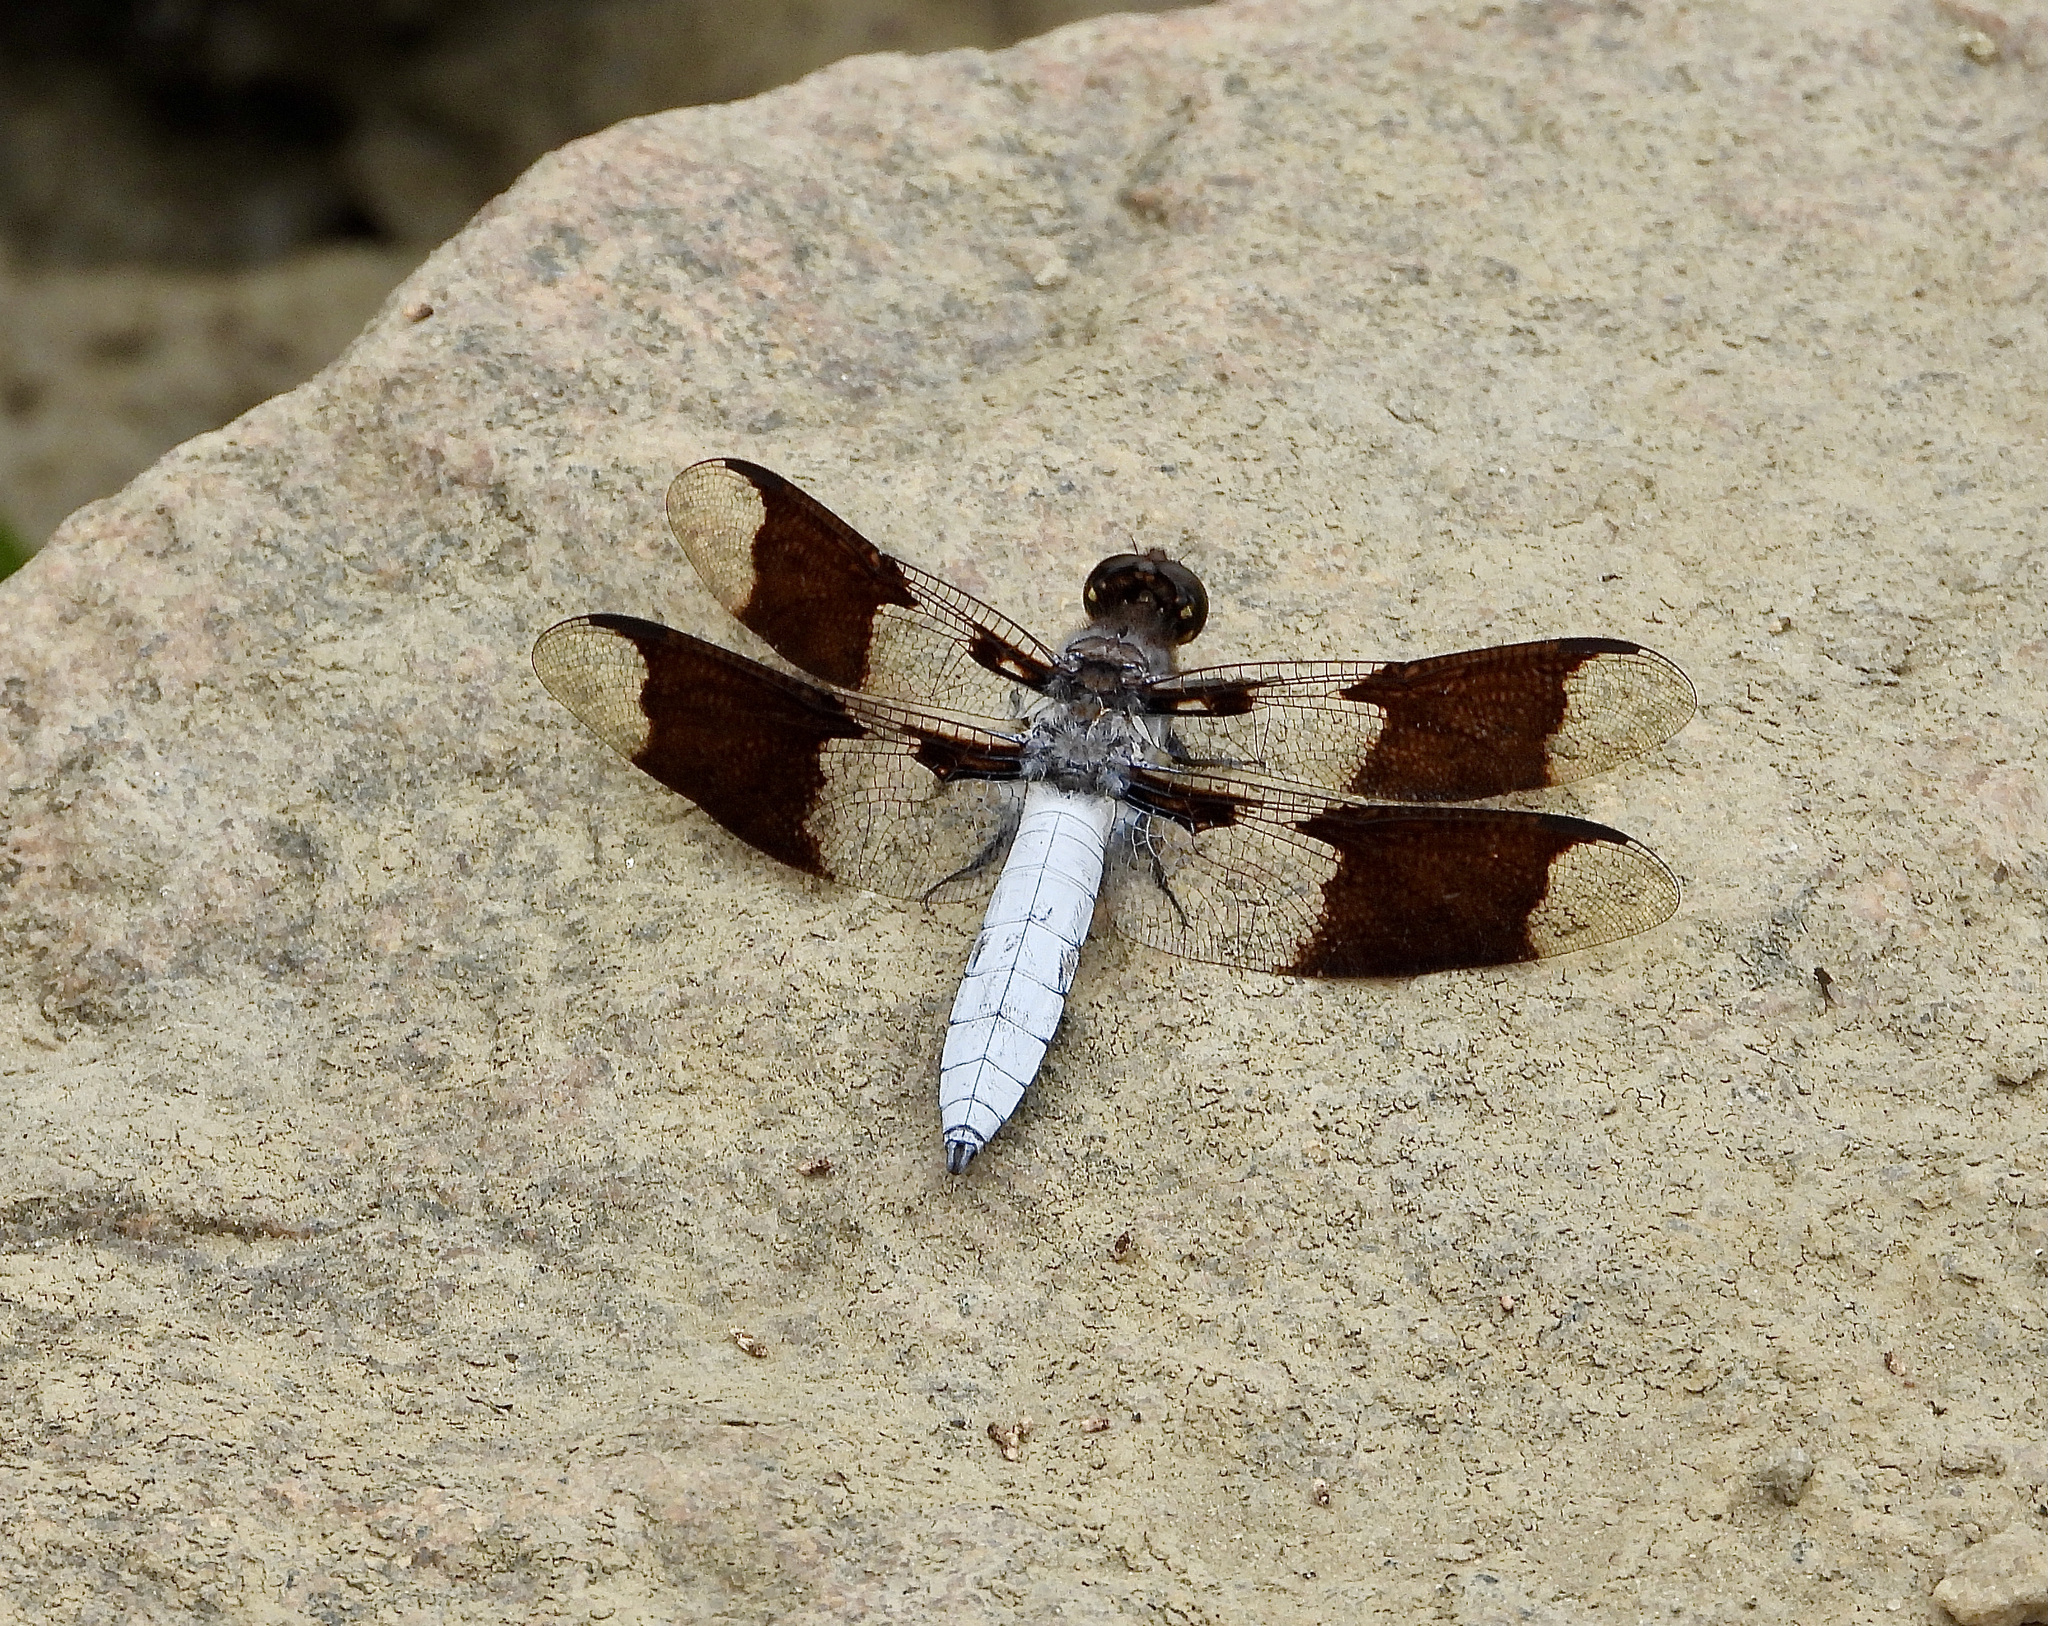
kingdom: Animalia
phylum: Arthropoda
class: Insecta
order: Odonata
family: Libellulidae
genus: Plathemis
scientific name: Plathemis lydia
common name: Common whitetail
